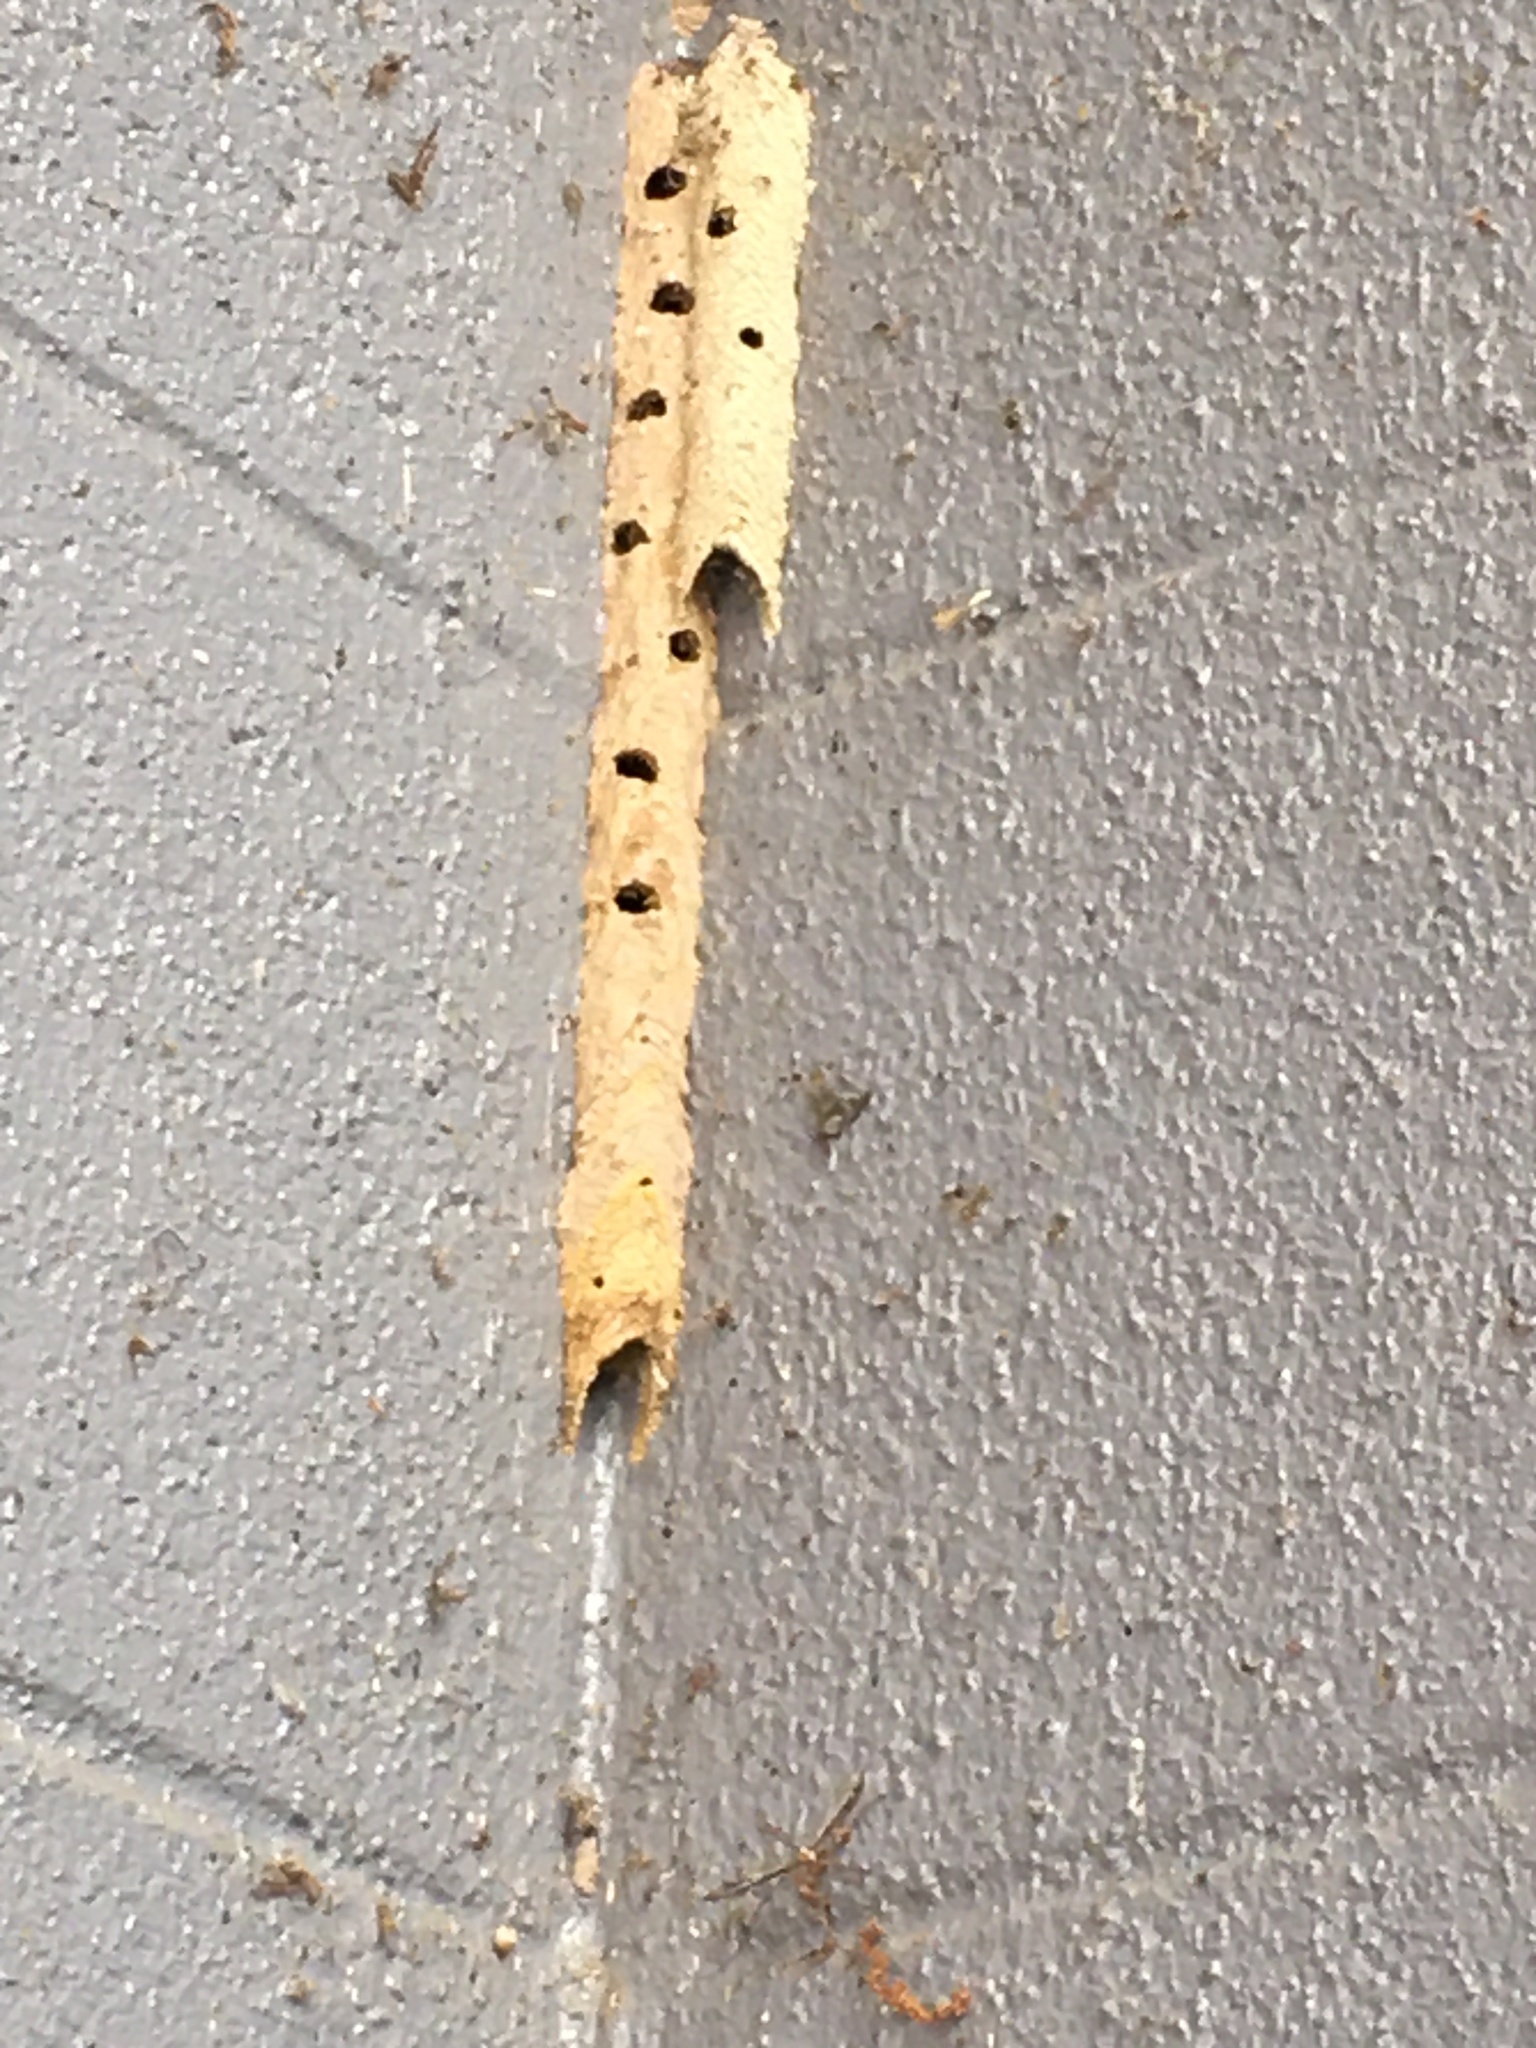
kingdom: Animalia
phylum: Arthropoda
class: Insecta
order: Hymenoptera
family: Crabronidae
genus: Trypoxylon
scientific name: Trypoxylon politum
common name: Organ-pipe mud-dauber wasp
